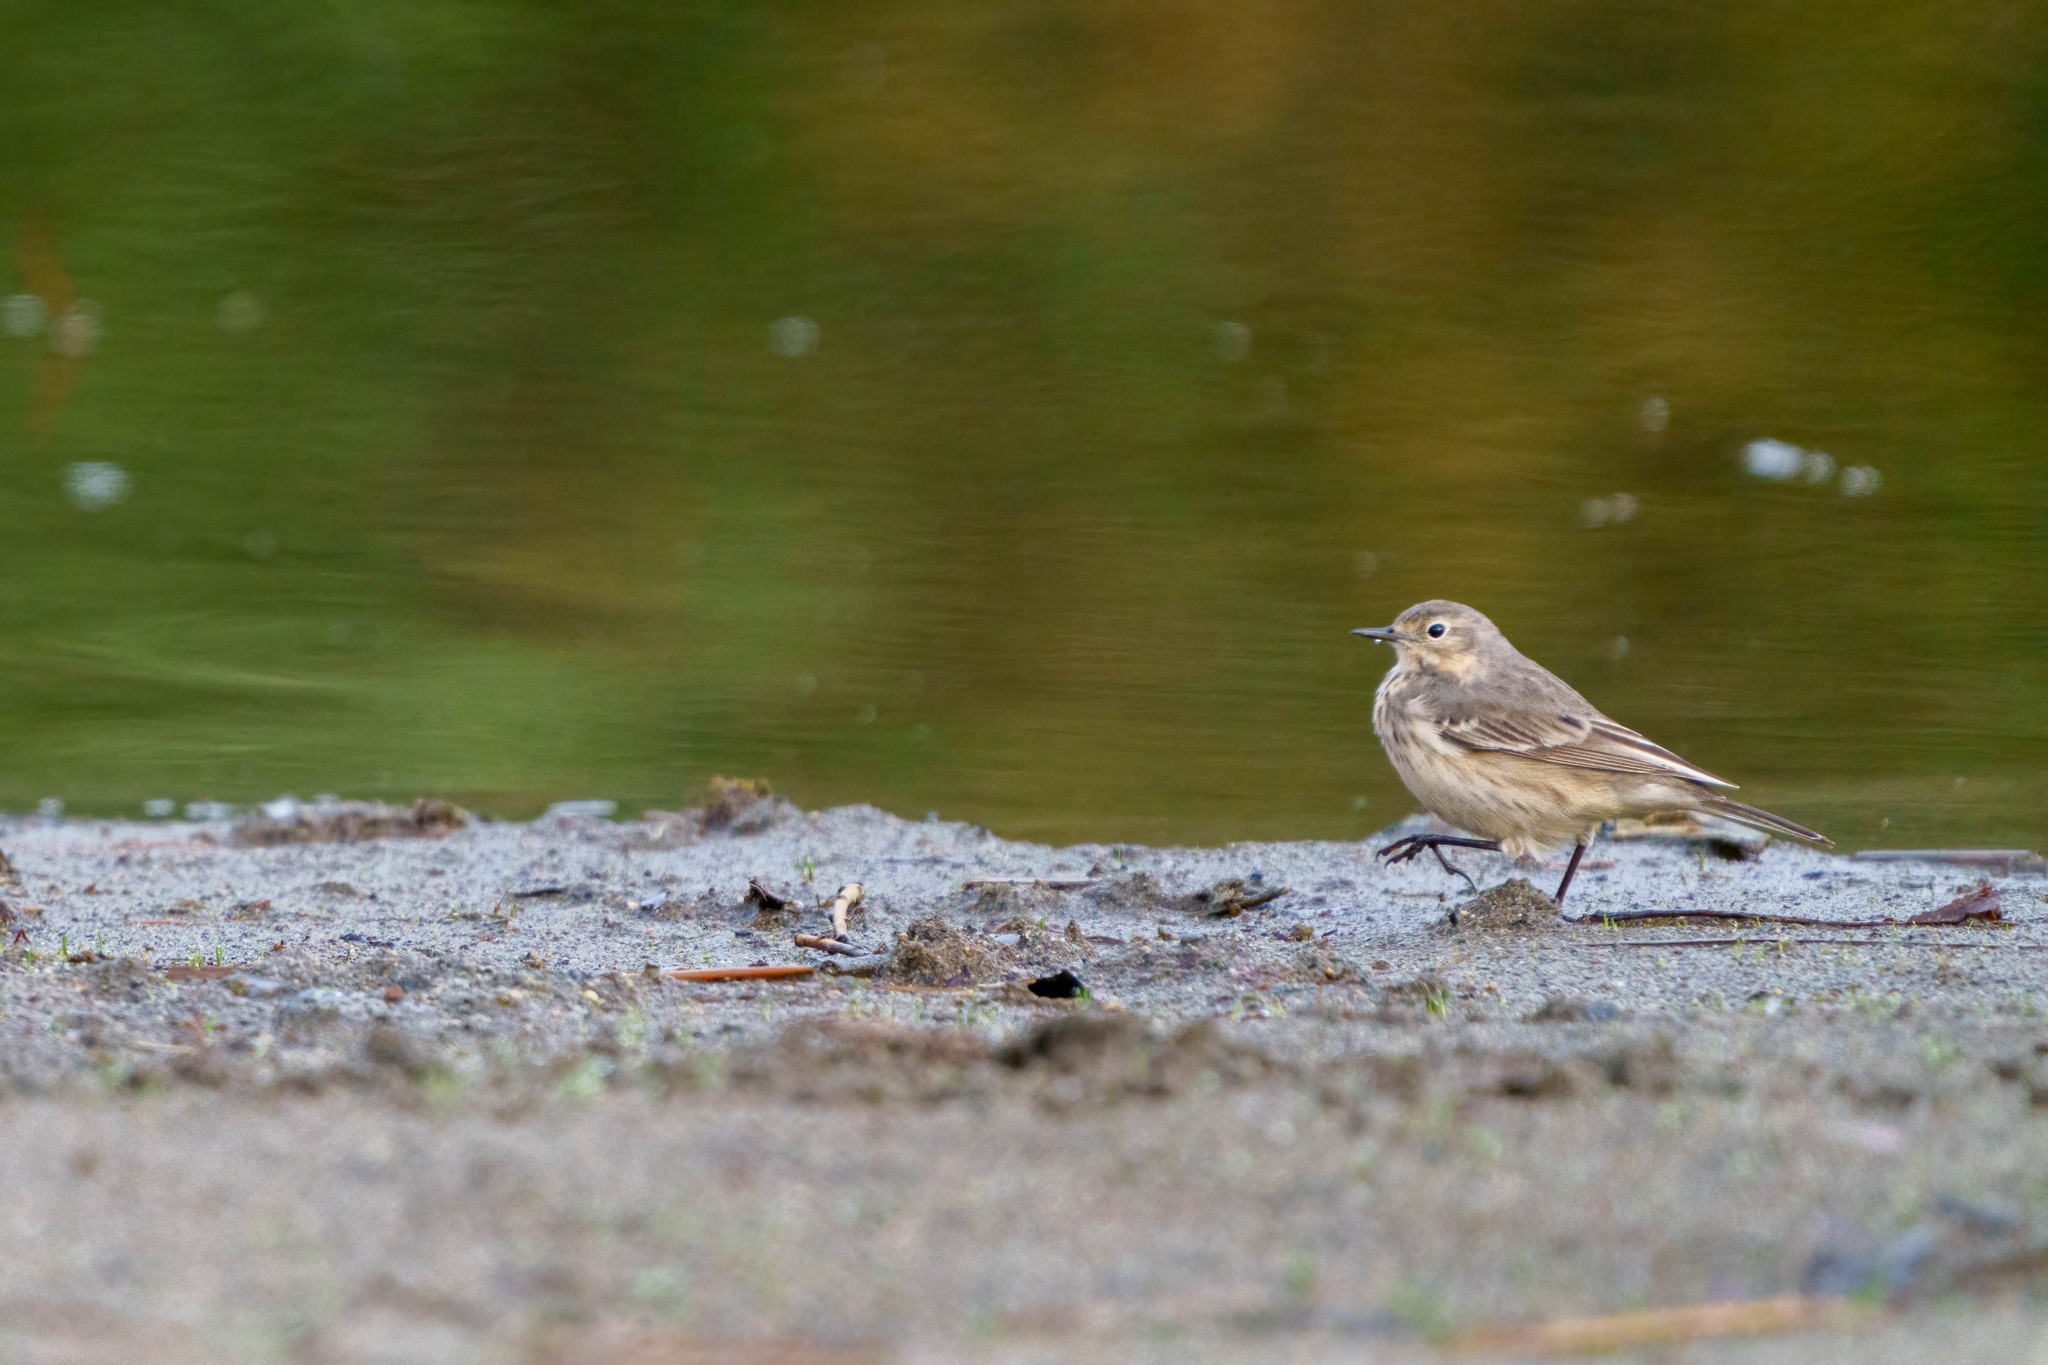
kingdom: Animalia
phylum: Chordata
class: Aves
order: Passeriformes
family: Motacillidae
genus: Anthus
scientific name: Anthus rubescens
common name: Buff-bellied pipit
